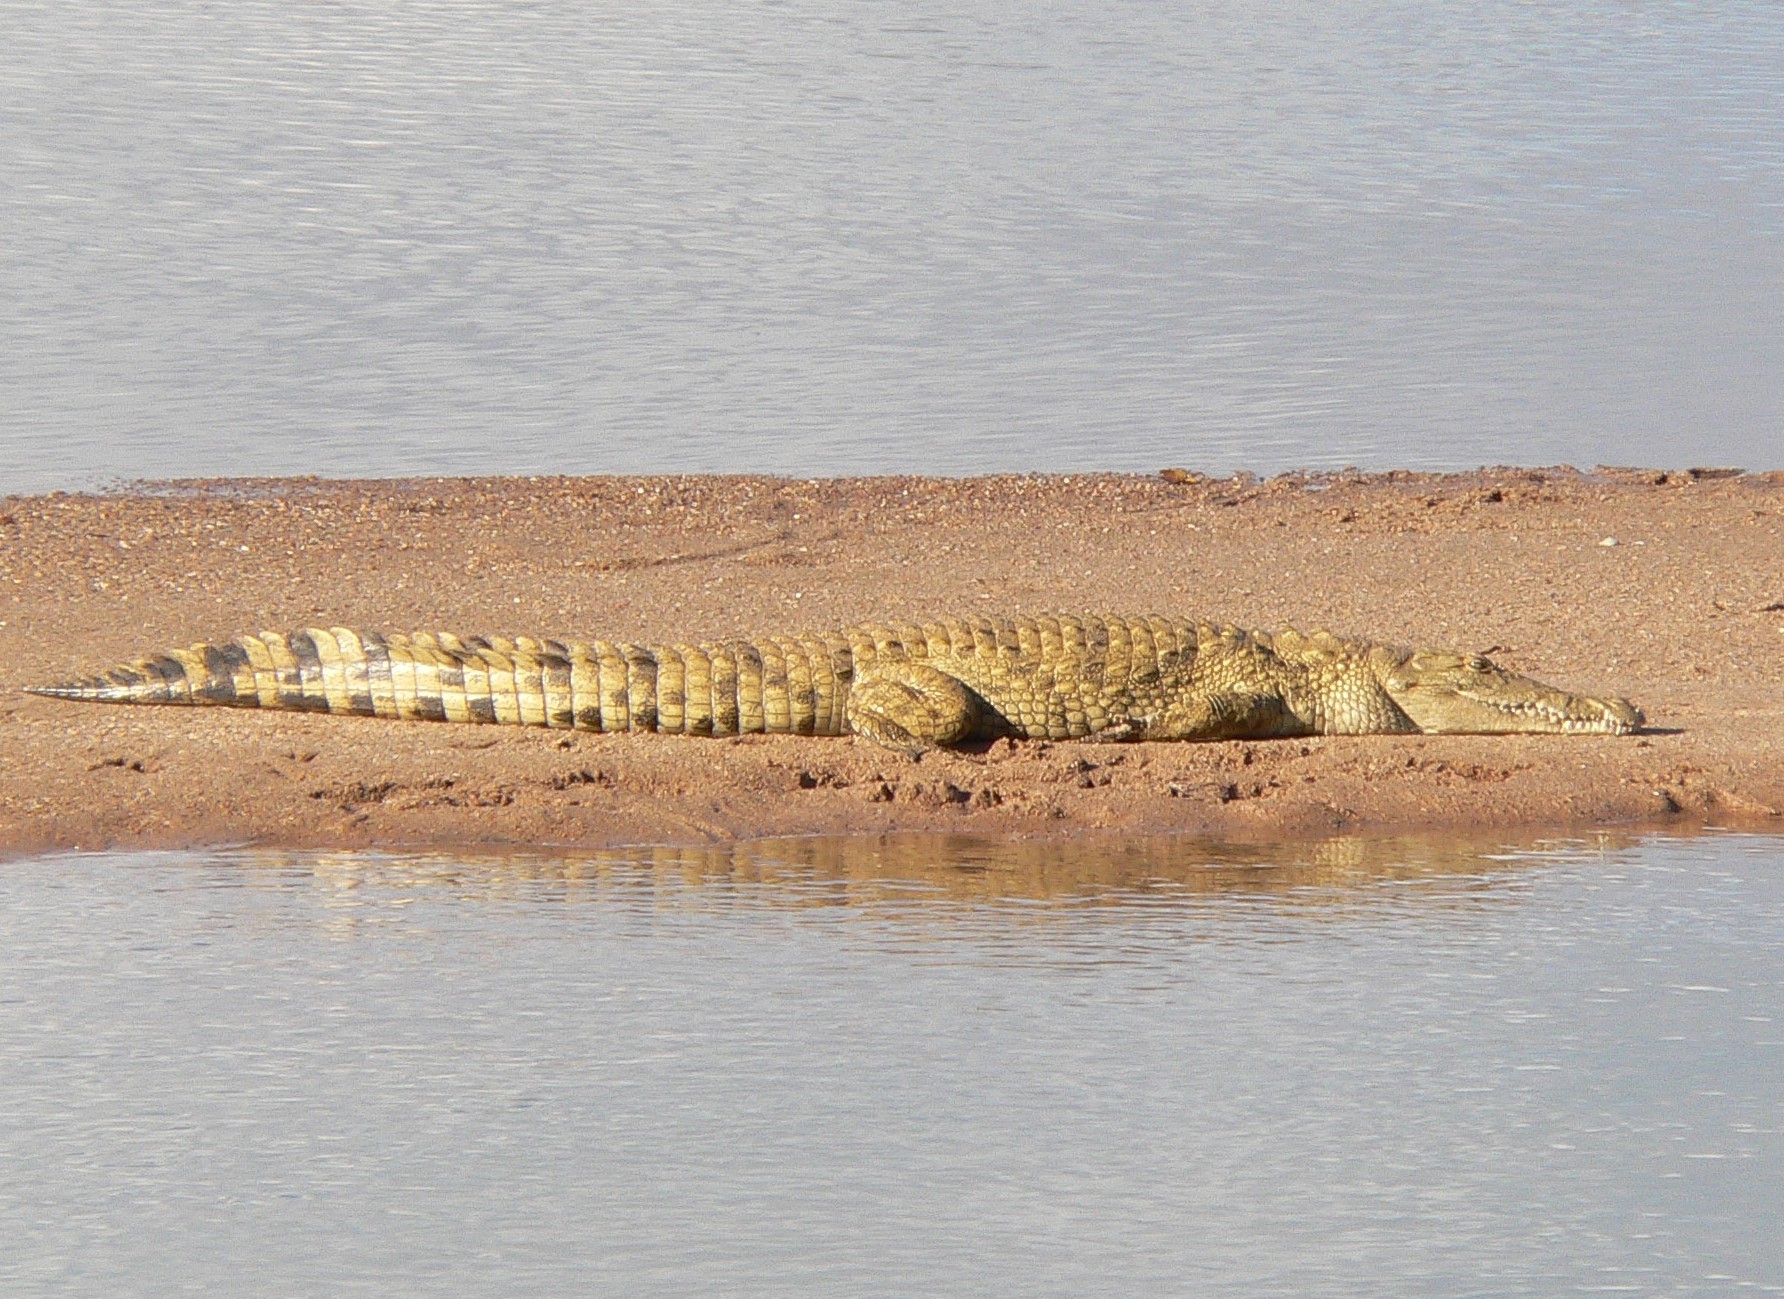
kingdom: Animalia
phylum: Chordata
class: Crocodylia
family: Crocodylidae
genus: Crocodylus
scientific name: Crocodylus niloticus
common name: Nile crocodile
